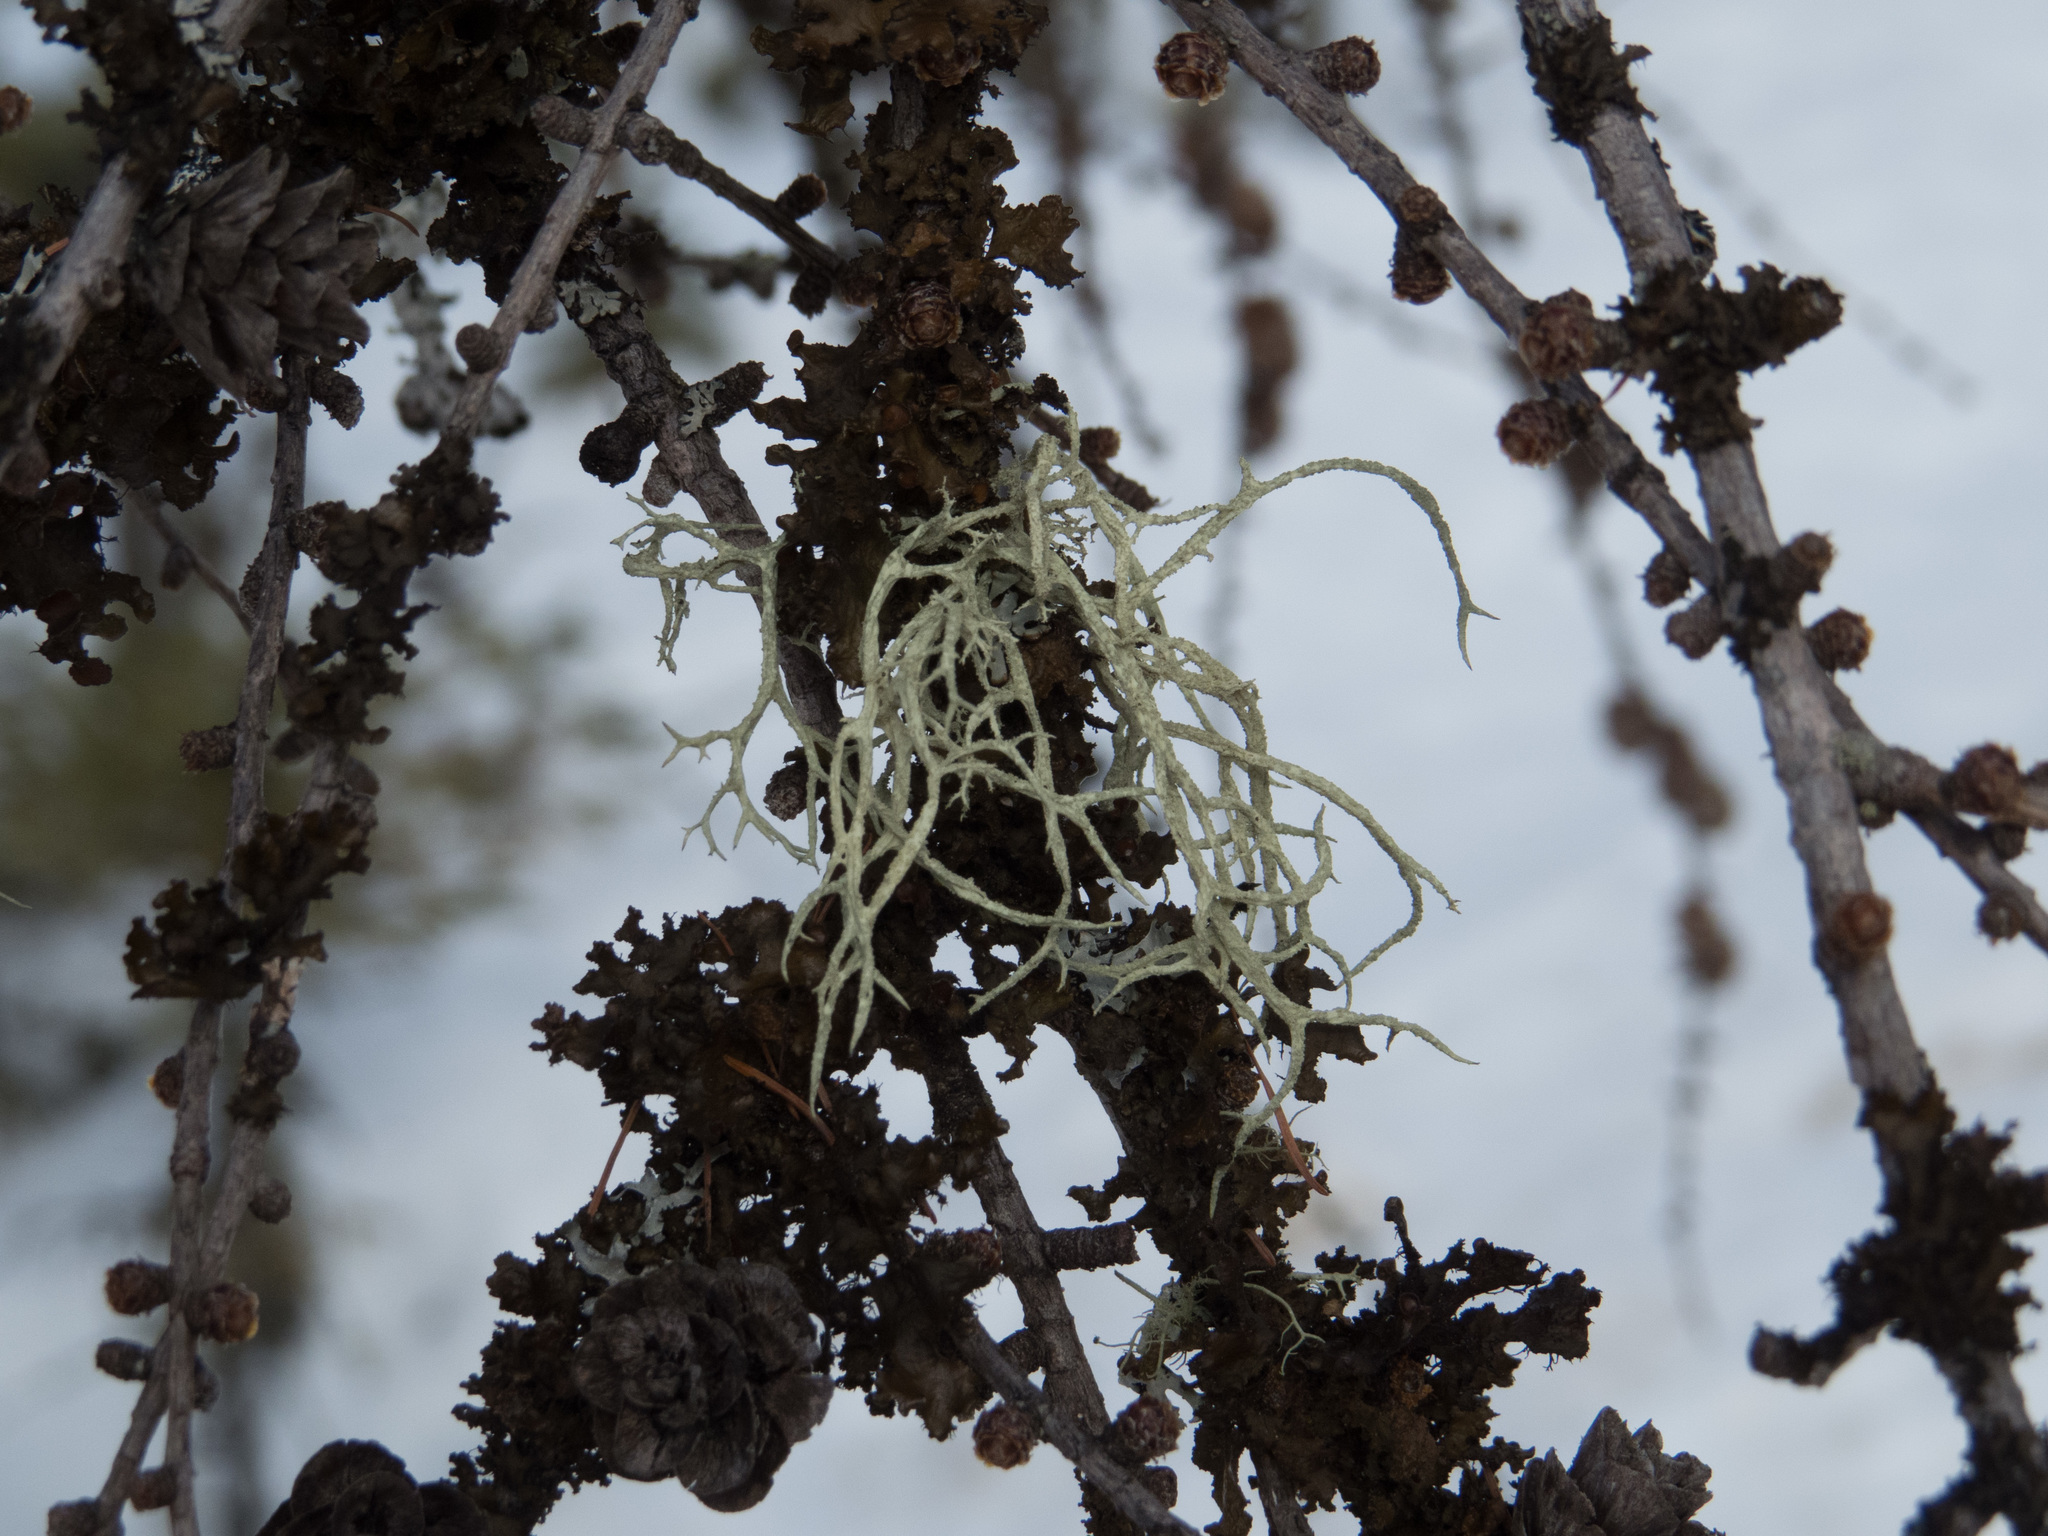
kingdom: Plantae
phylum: Tracheophyta
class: Pinopsida
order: Pinales
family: Pinaceae
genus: Larix
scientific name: Larix laricina
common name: American larch
